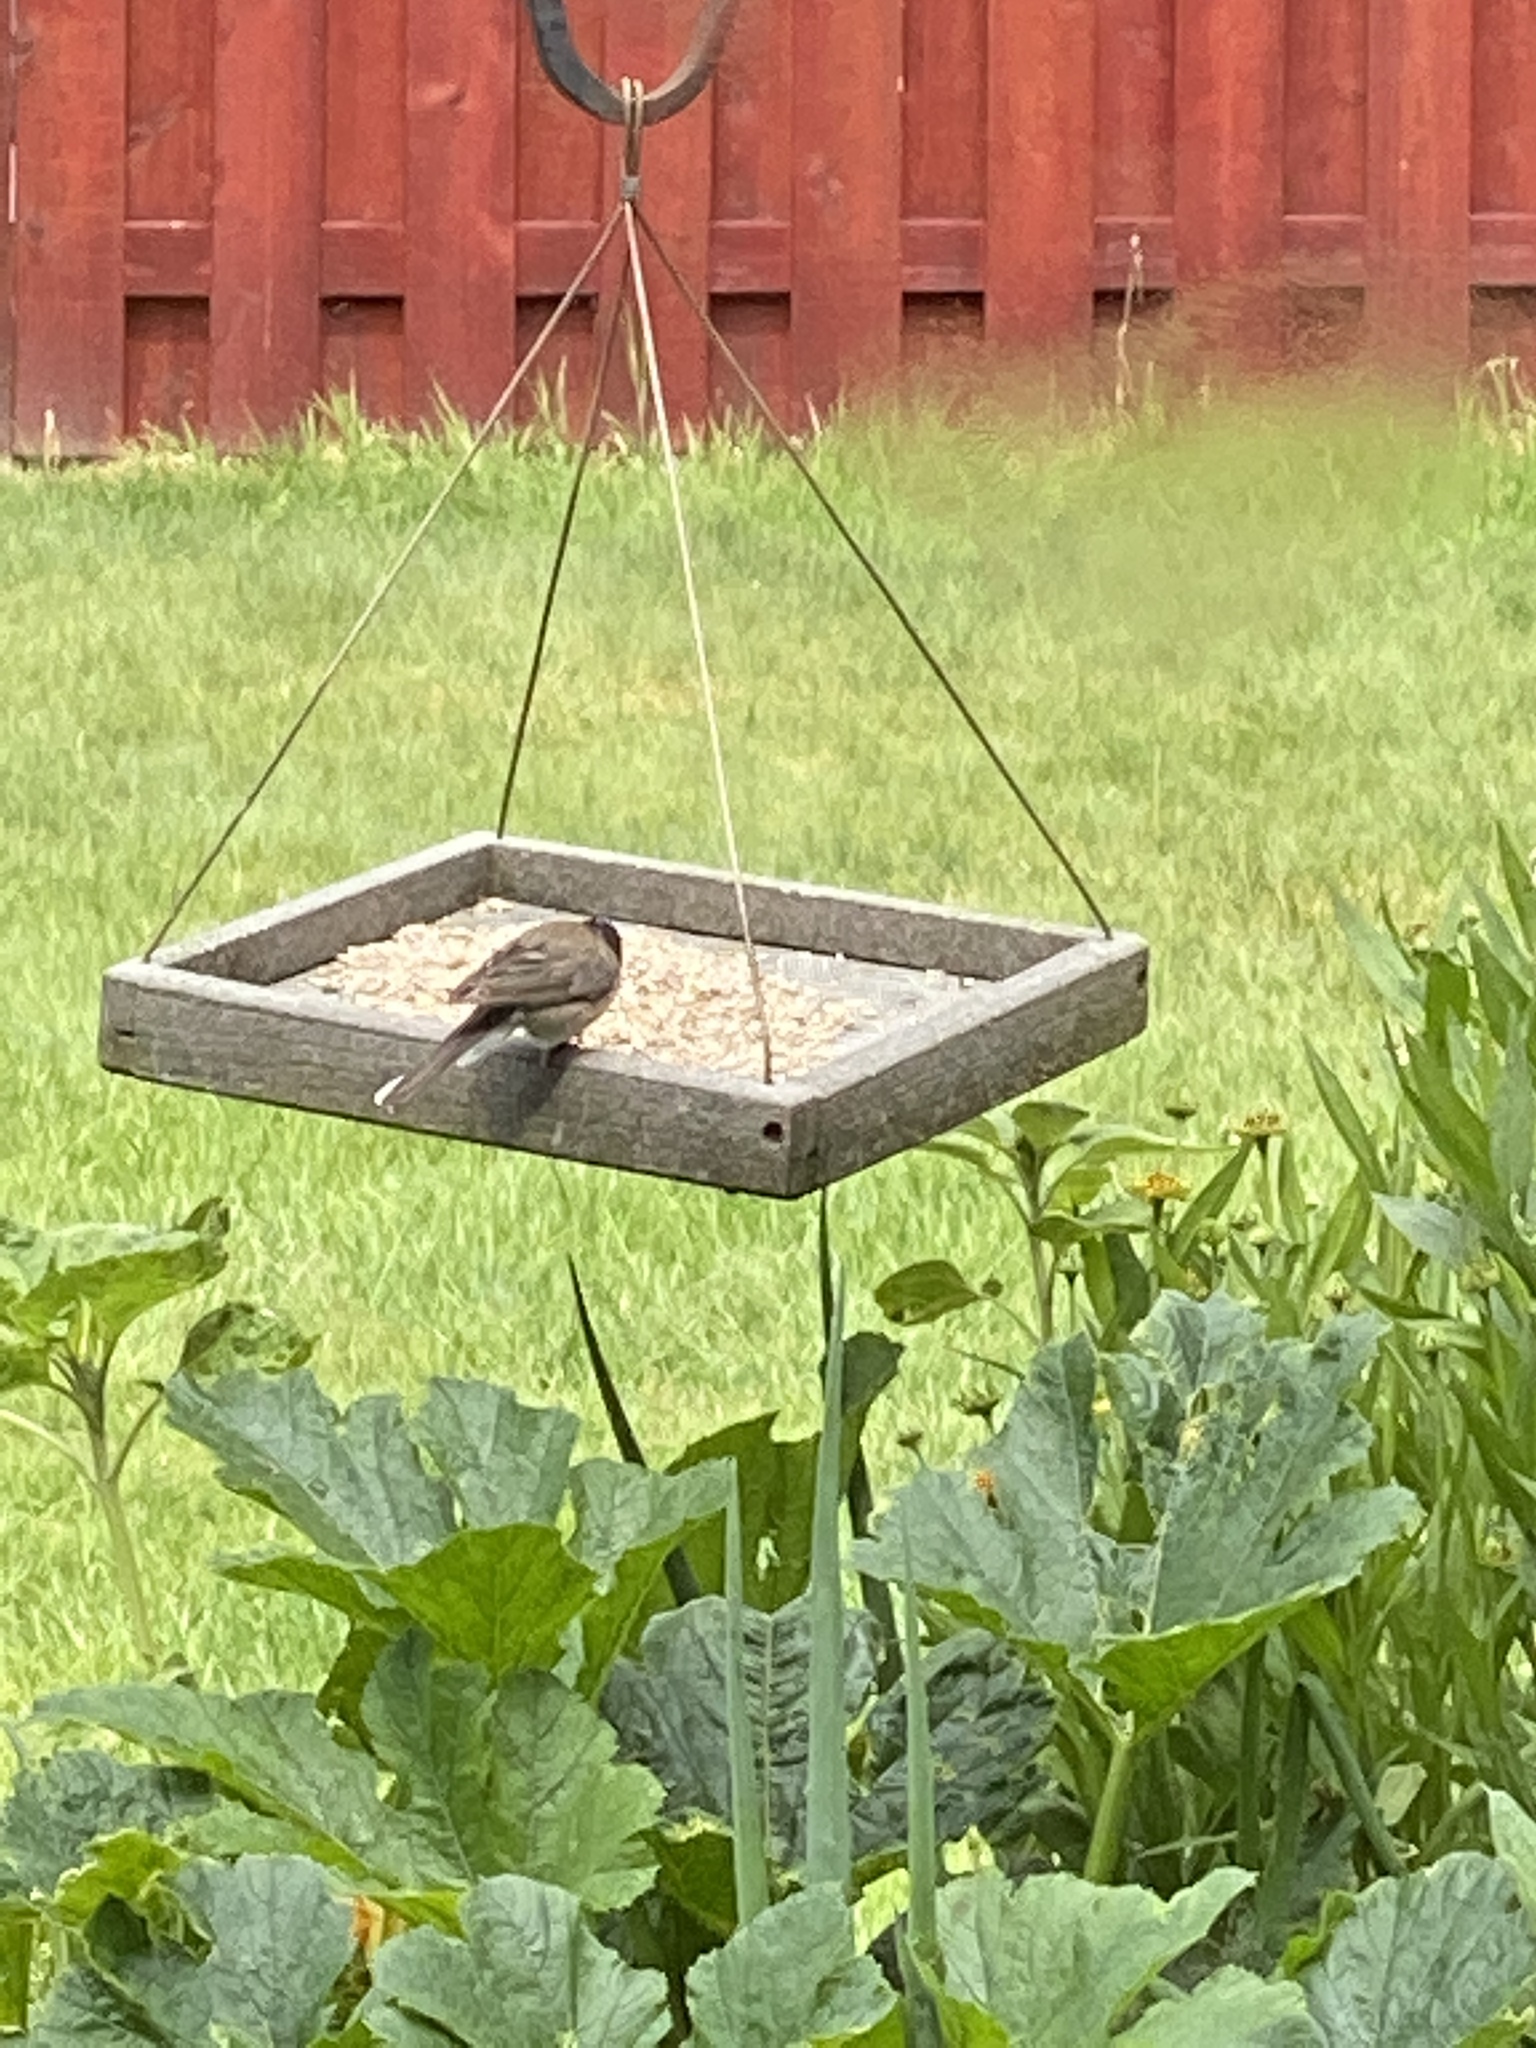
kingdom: Animalia
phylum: Chordata
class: Aves
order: Passeriformes
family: Passerellidae
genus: Junco
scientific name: Junco hyemalis
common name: Dark-eyed junco
